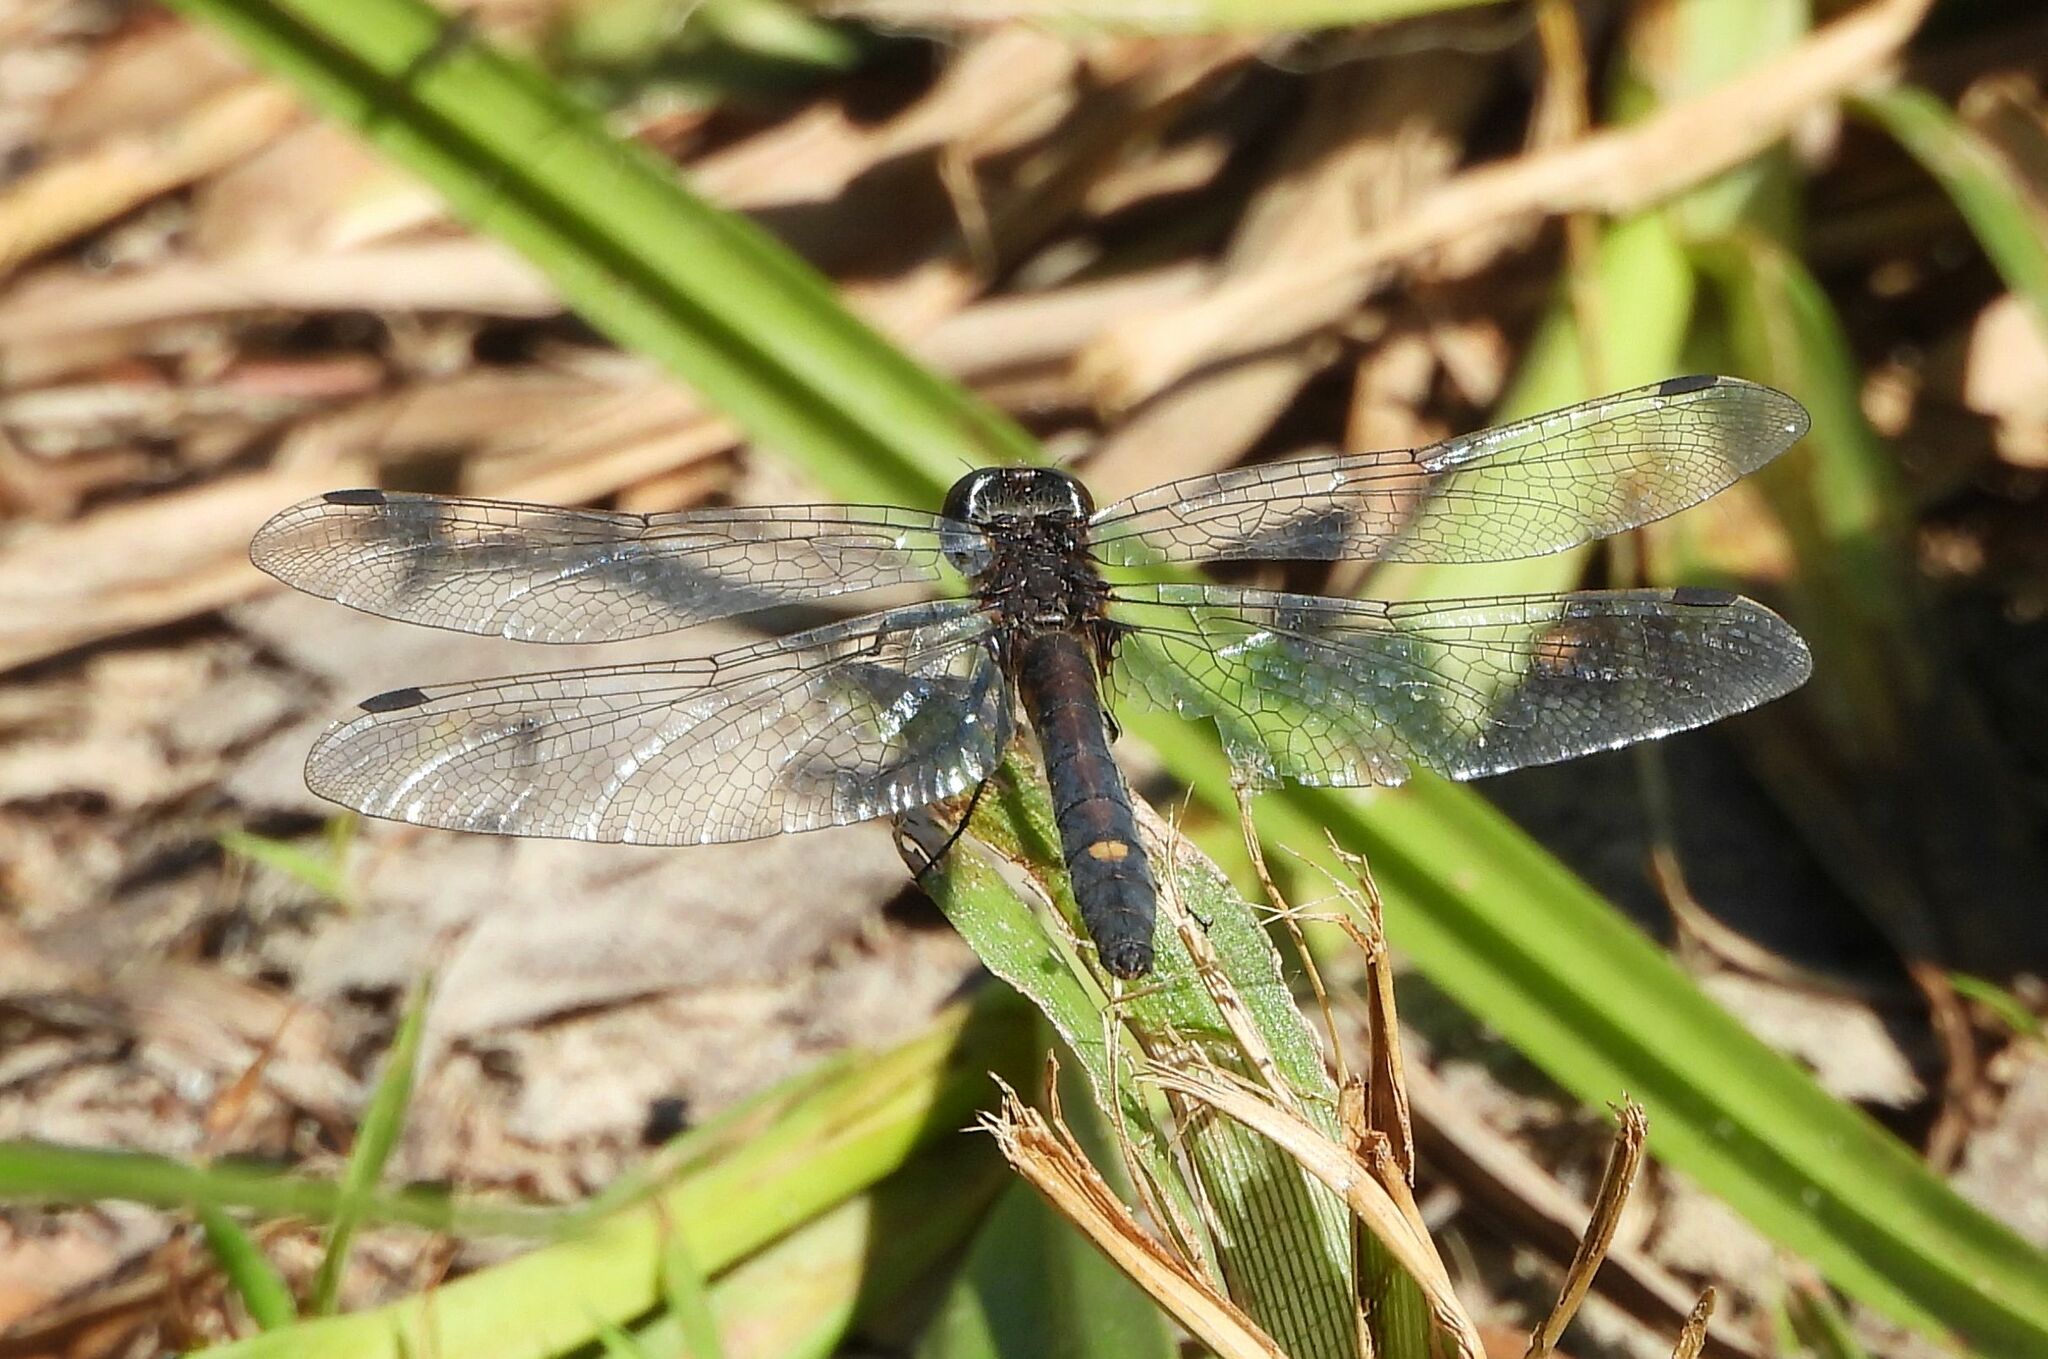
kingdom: Animalia
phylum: Arthropoda
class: Insecta
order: Odonata
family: Libellulidae
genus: Leucorrhinia
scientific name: Leucorrhinia intacta
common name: Dot-tailed whiteface
